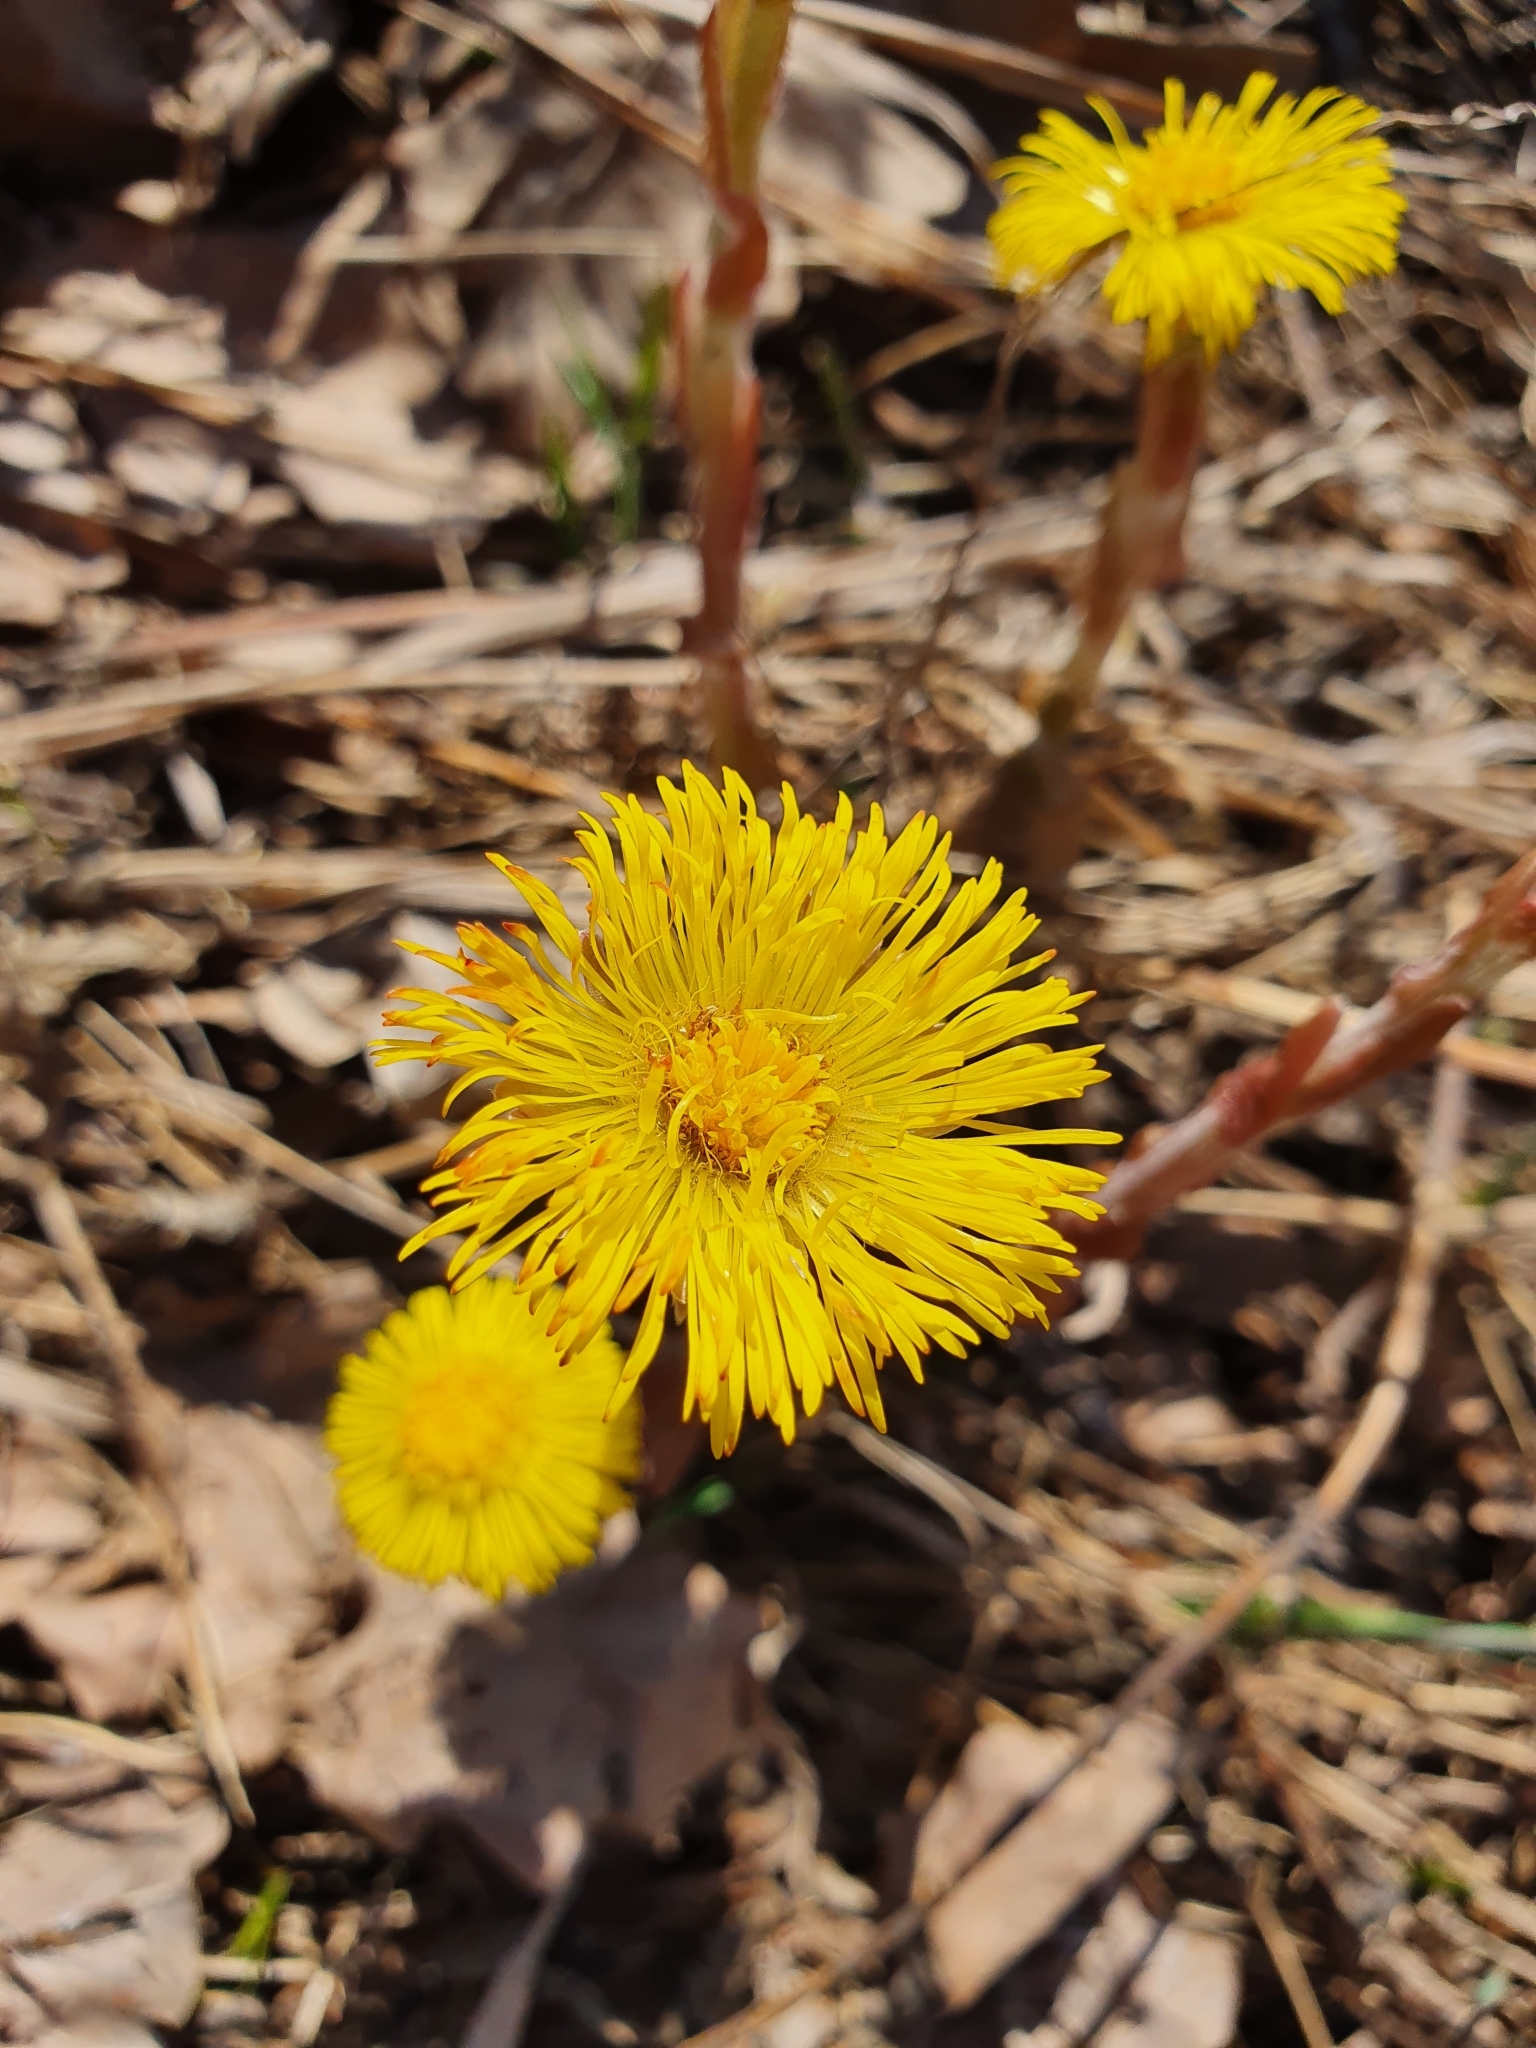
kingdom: Plantae
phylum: Tracheophyta
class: Magnoliopsida
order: Asterales
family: Asteraceae
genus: Tussilago
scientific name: Tussilago farfara
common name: Coltsfoot
